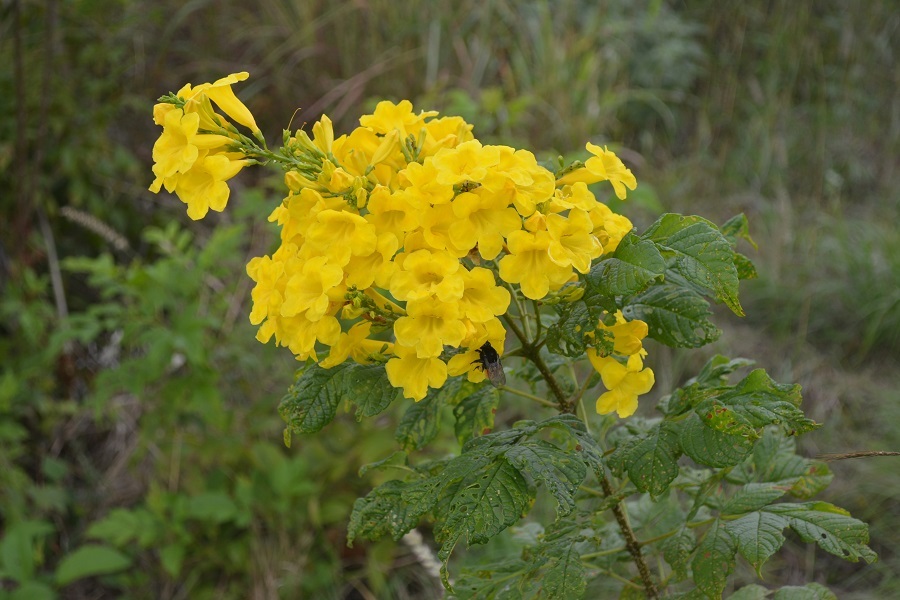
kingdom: Plantae
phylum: Tracheophyta
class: Magnoliopsida
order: Lamiales
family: Bignoniaceae
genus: Tecoma
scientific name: Tecoma stans
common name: Yellow trumpetbush
